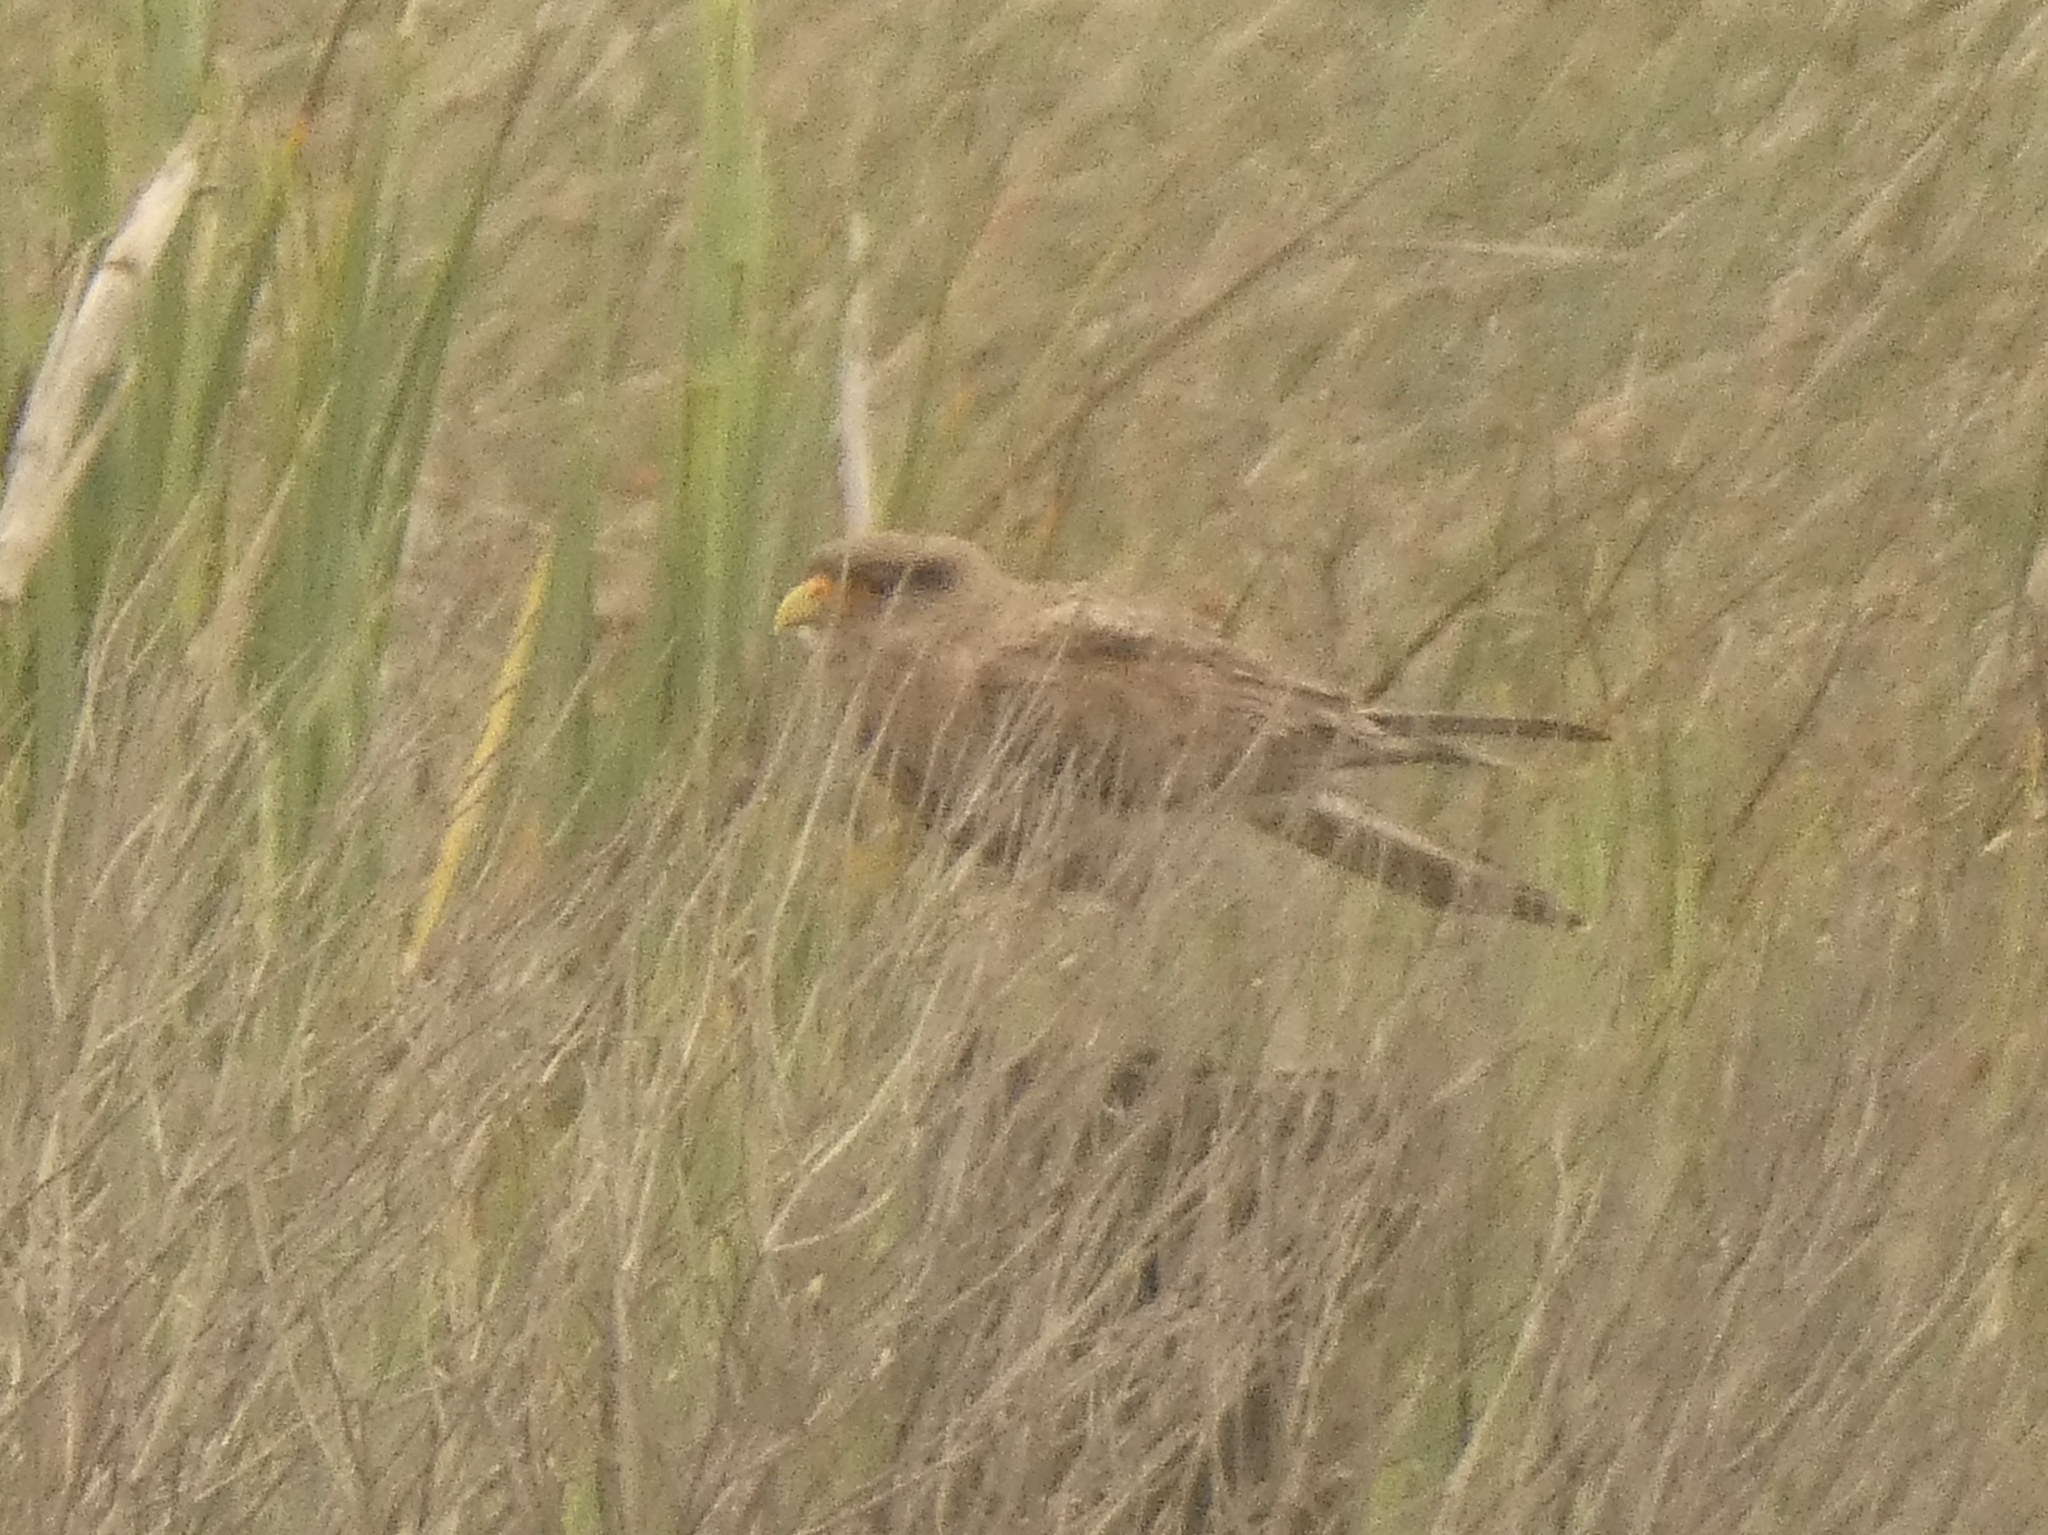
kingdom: Animalia
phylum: Chordata
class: Aves
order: Falconiformes
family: Falconidae
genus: Daptrius
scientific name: Daptrius
